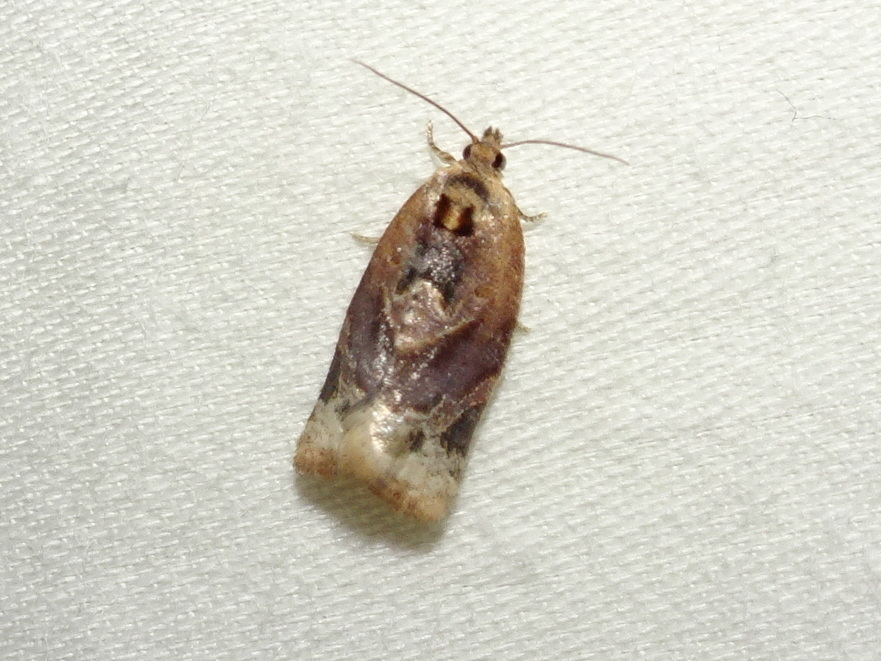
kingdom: Animalia
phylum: Arthropoda
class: Insecta
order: Lepidoptera
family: Tortricidae
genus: Argyrotaenia
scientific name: Argyrotaenia velutinana
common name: Red-banded leafroller moth
